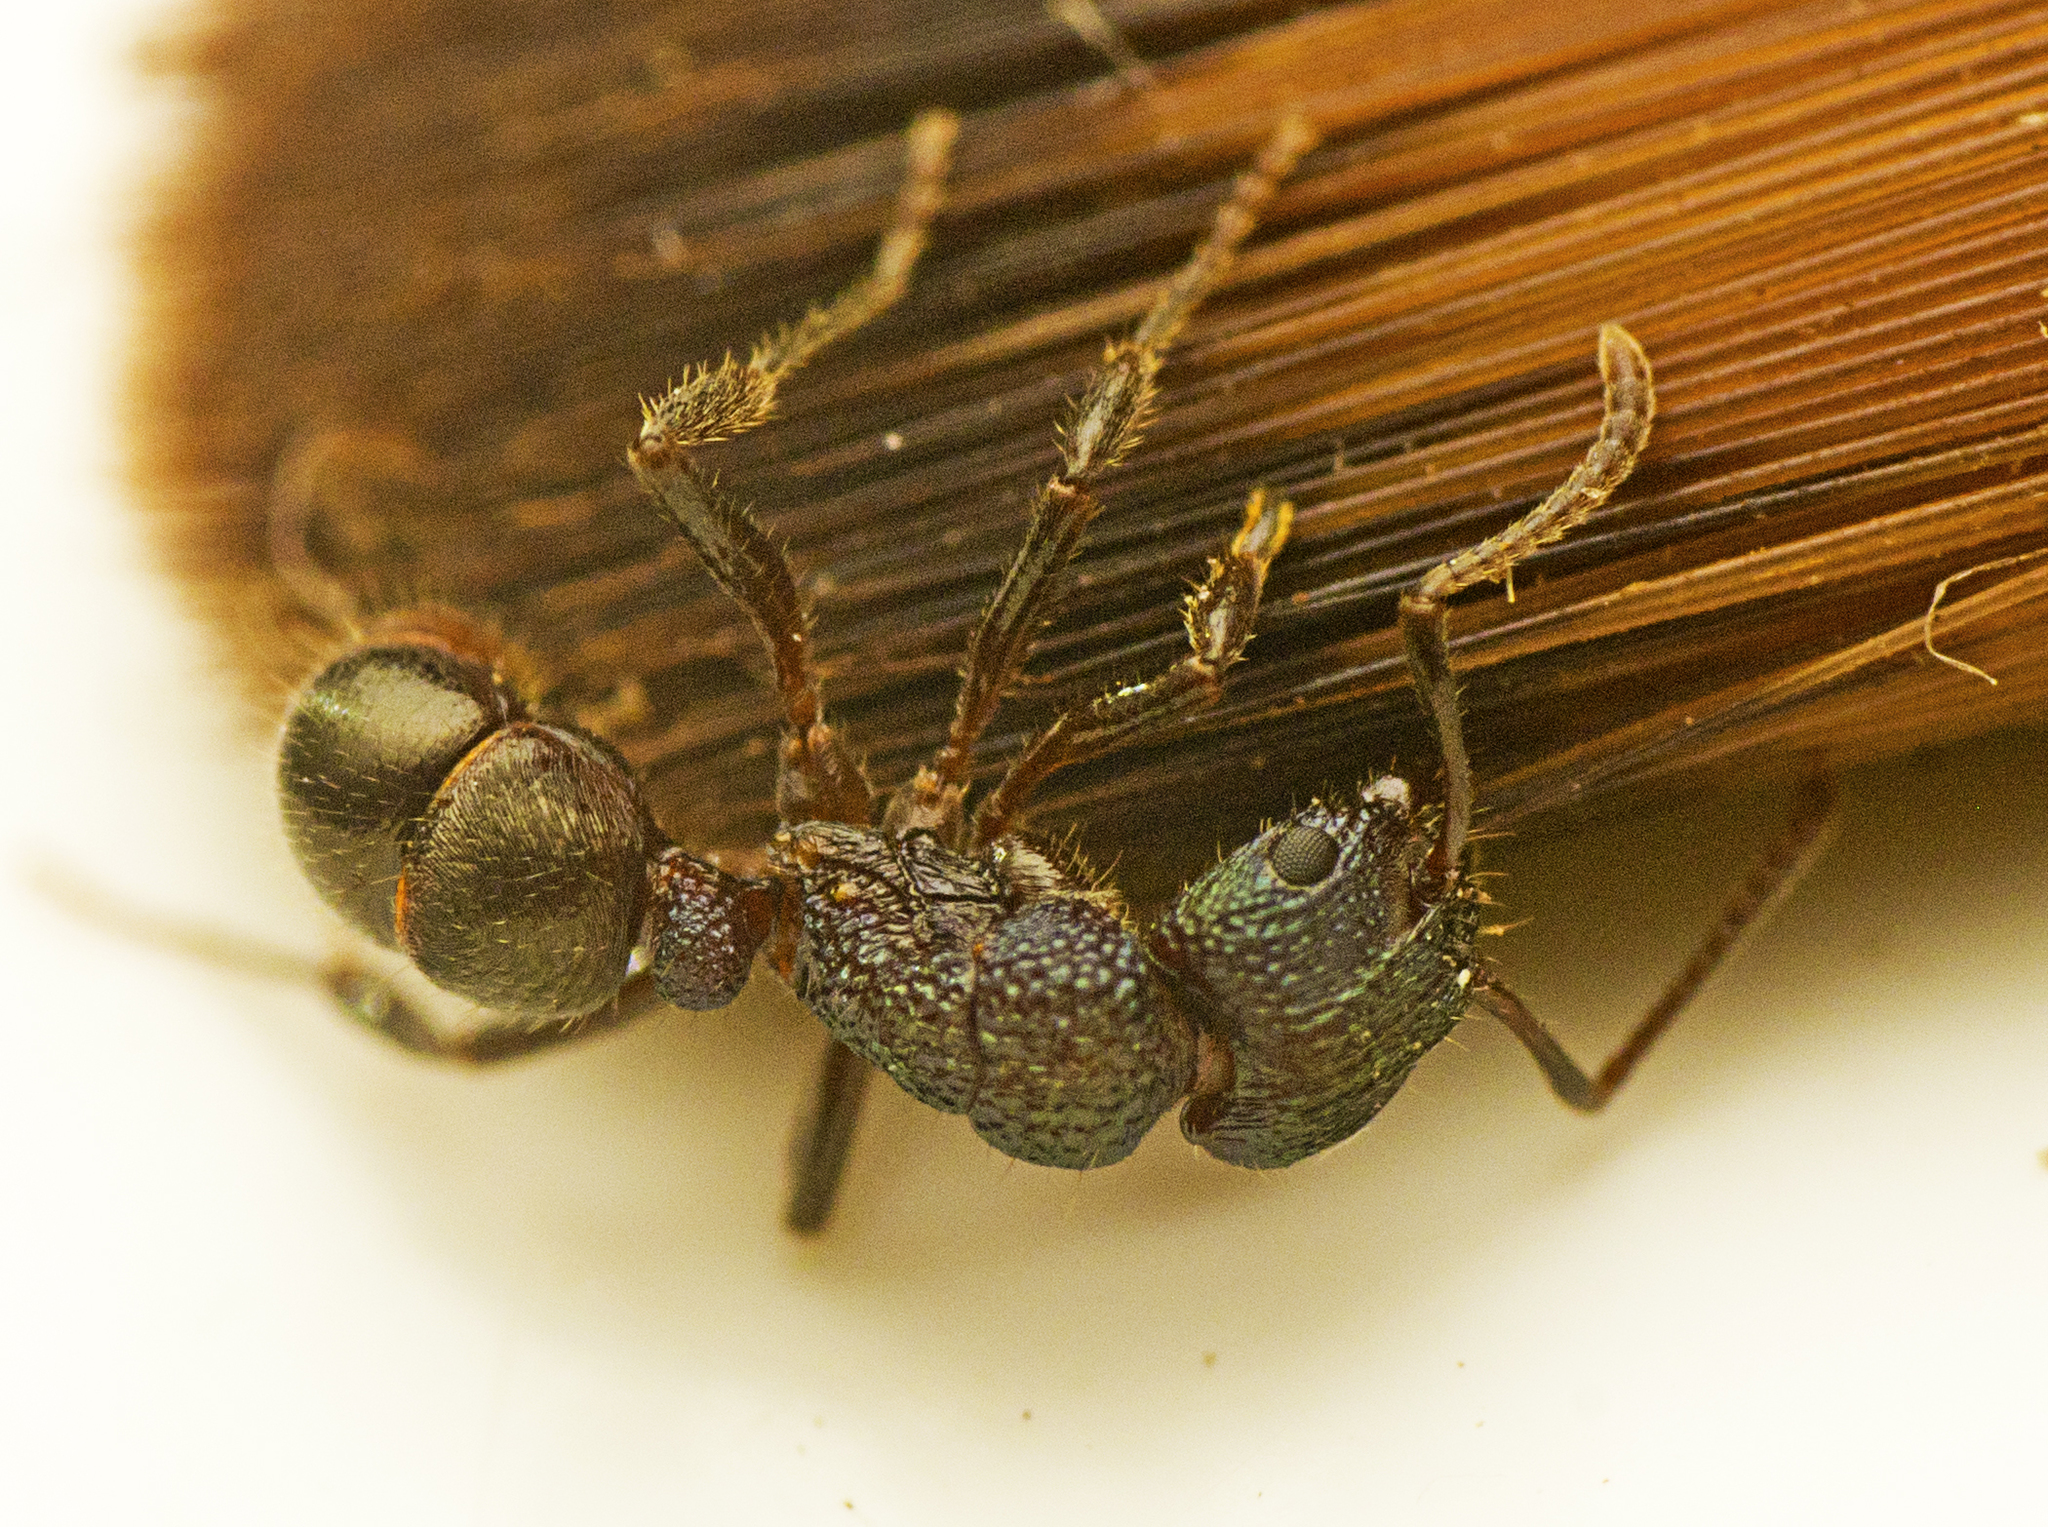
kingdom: Animalia
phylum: Arthropoda
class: Insecta
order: Hymenoptera
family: Formicidae
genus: Rhytidoponera
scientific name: Rhytidoponera victoriae
